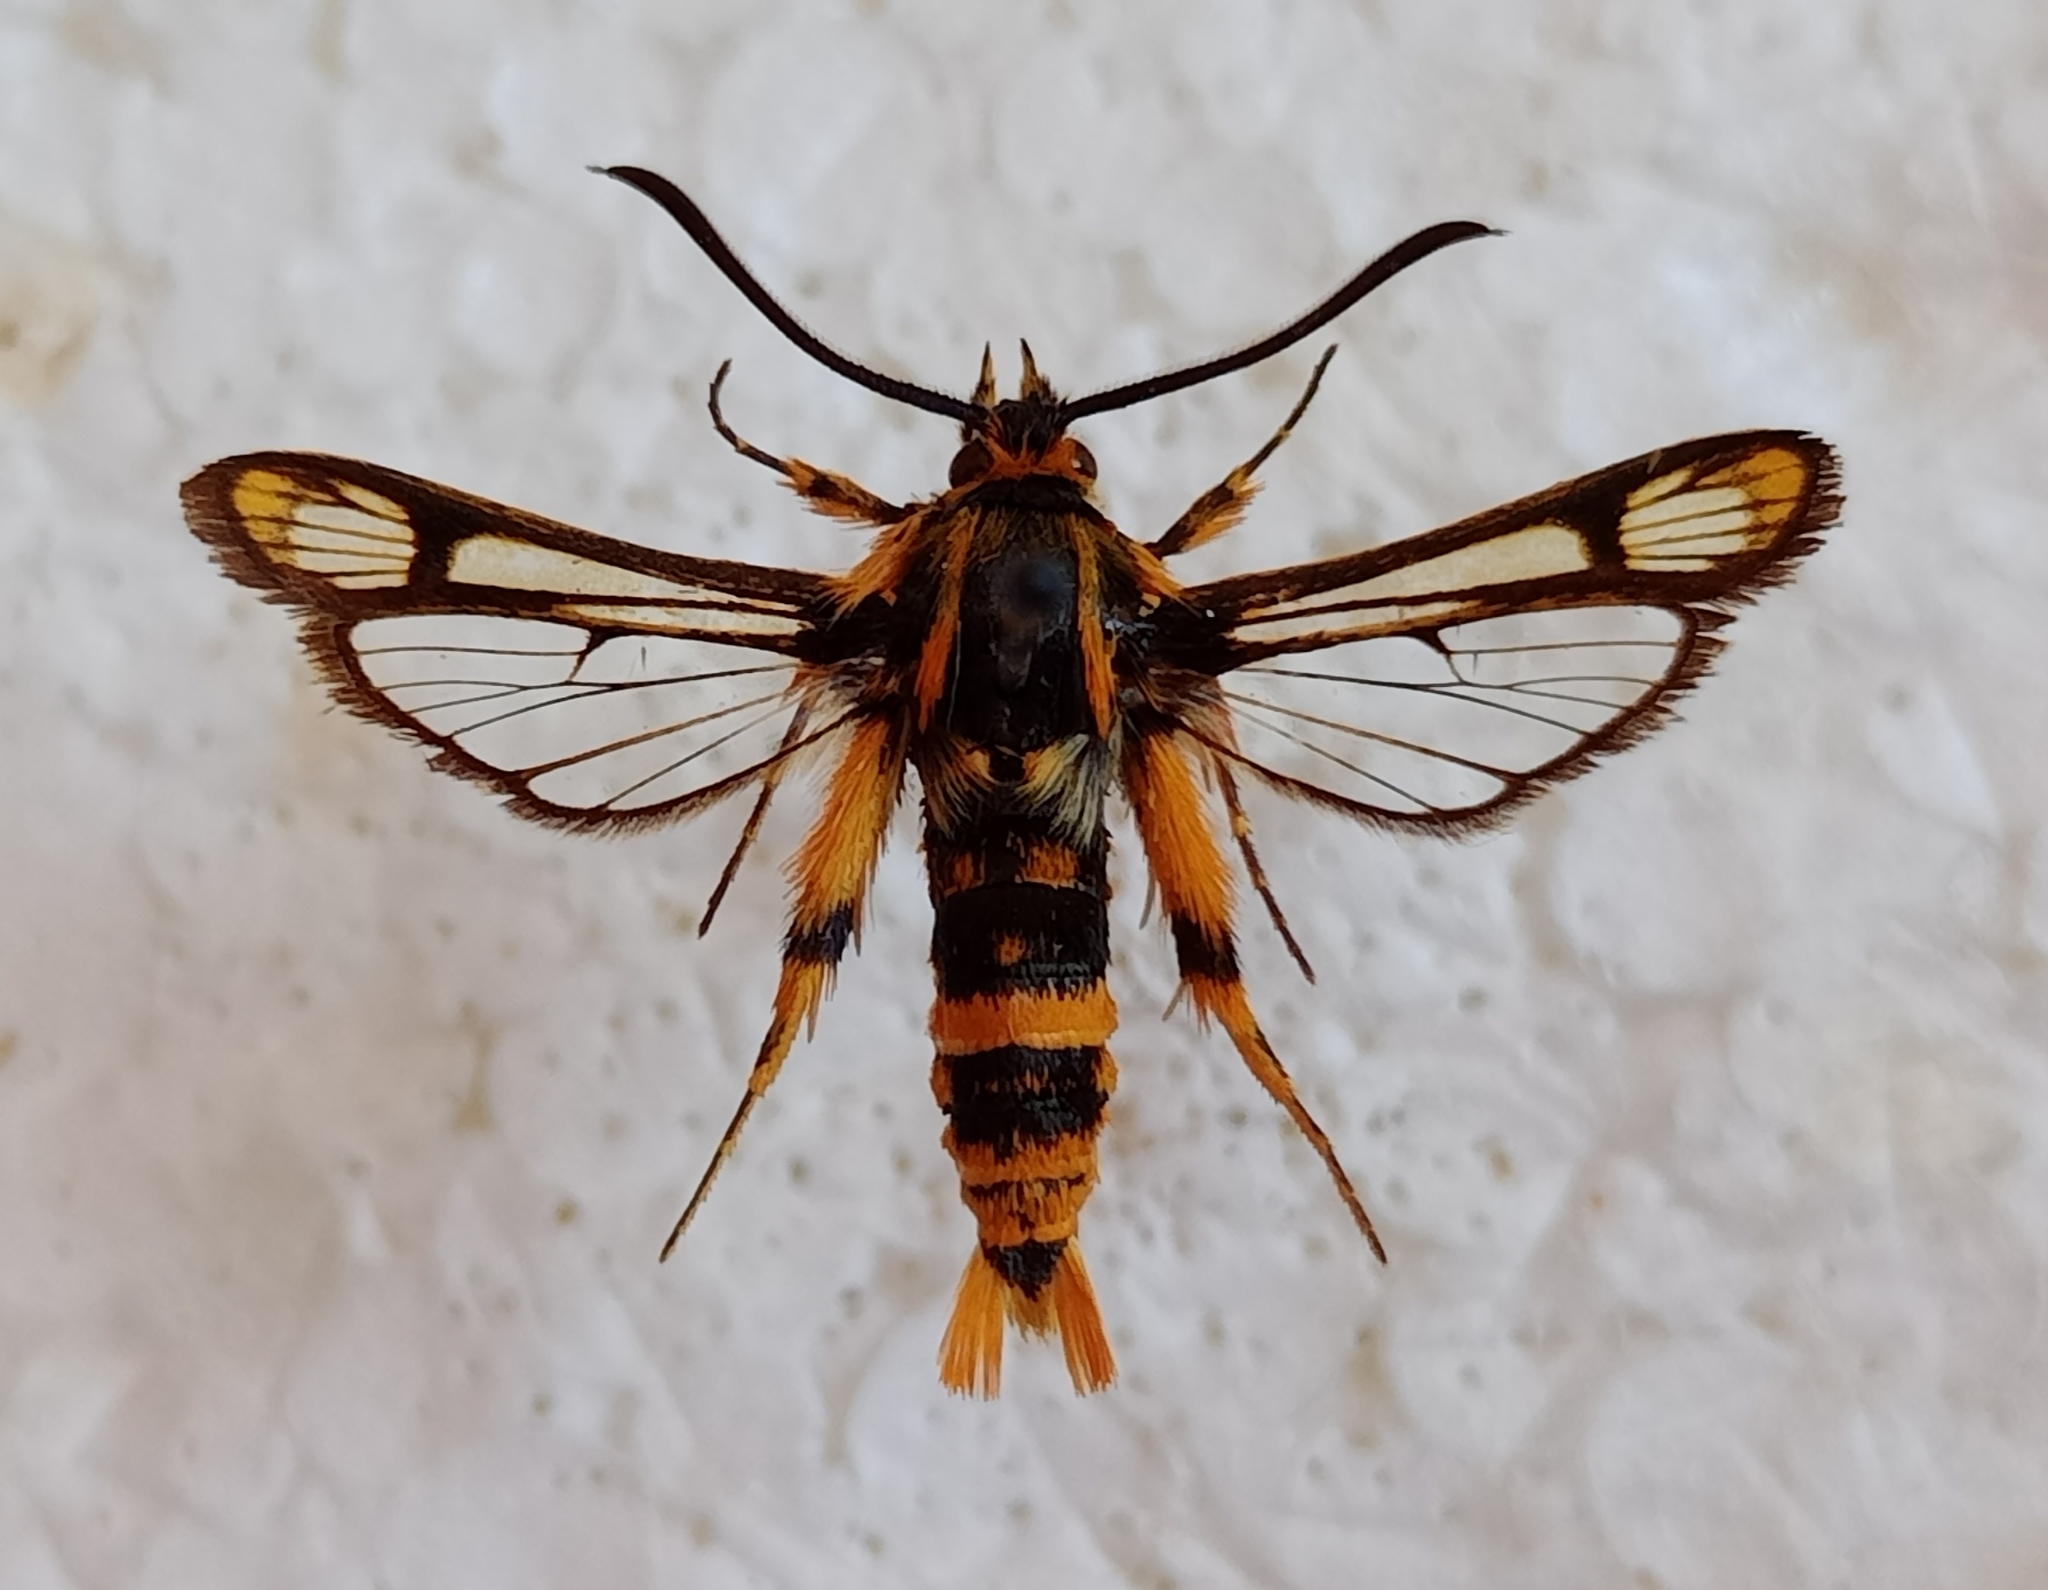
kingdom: Animalia
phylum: Arthropoda
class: Insecta
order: Lepidoptera
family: Sesiidae
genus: Chamaesphecia
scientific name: Chamaesphecia masariformis
